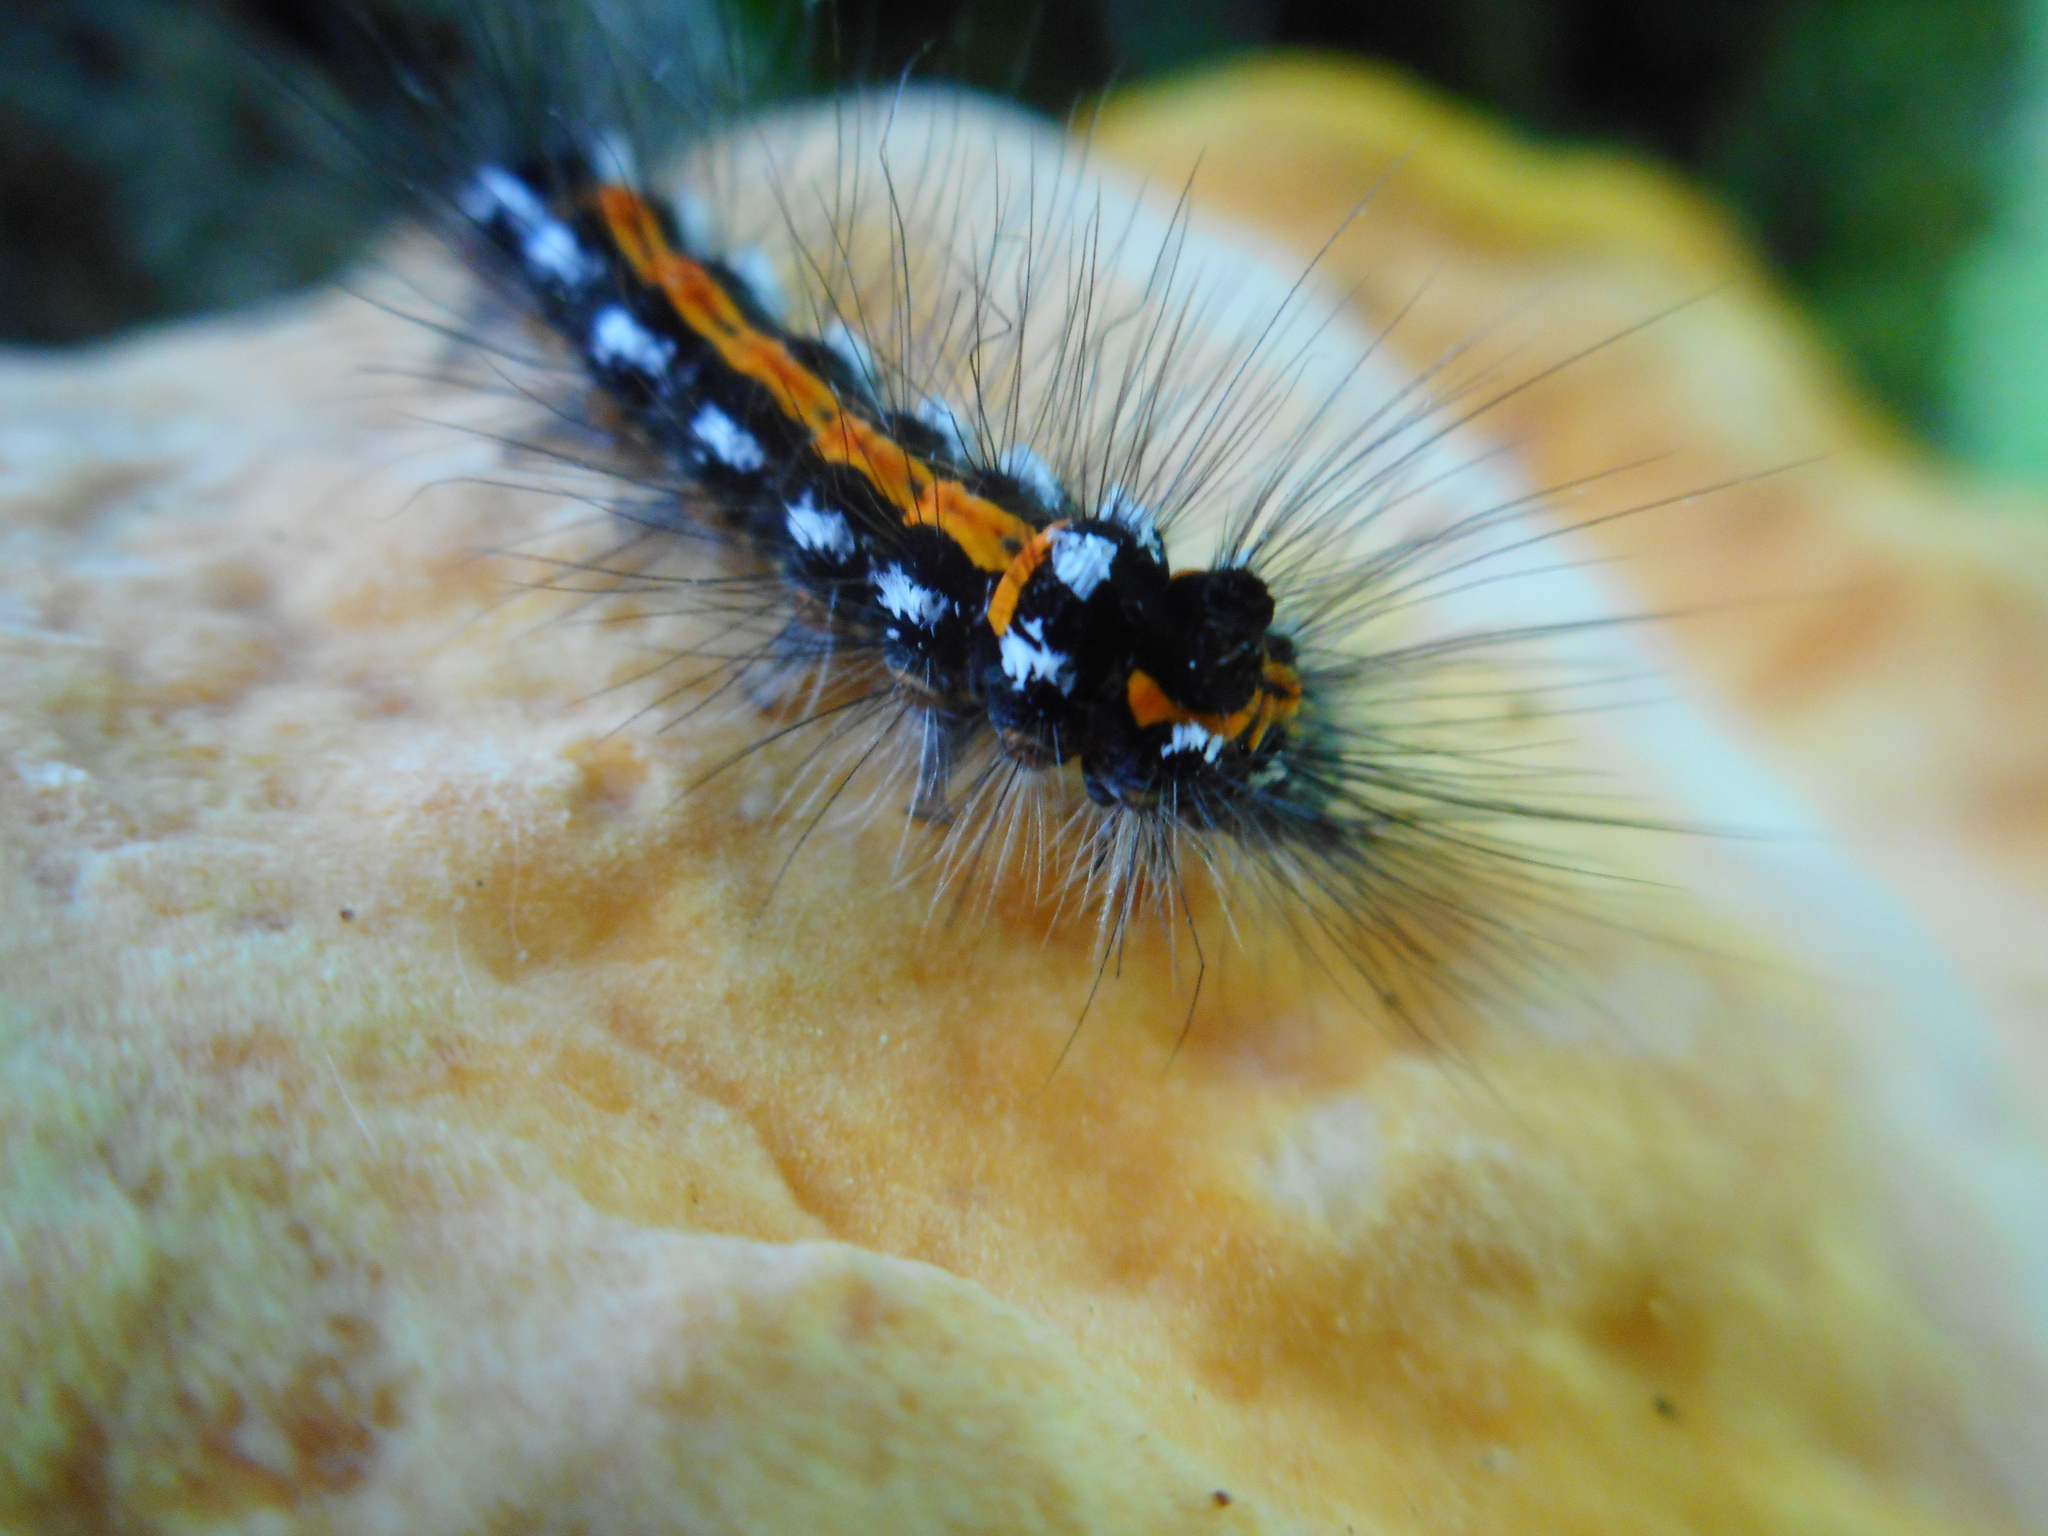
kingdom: Animalia
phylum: Arthropoda
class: Insecta
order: Lepidoptera
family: Erebidae
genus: Sphrageidus
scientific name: Sphrageidus similis
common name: Yellow-tail
